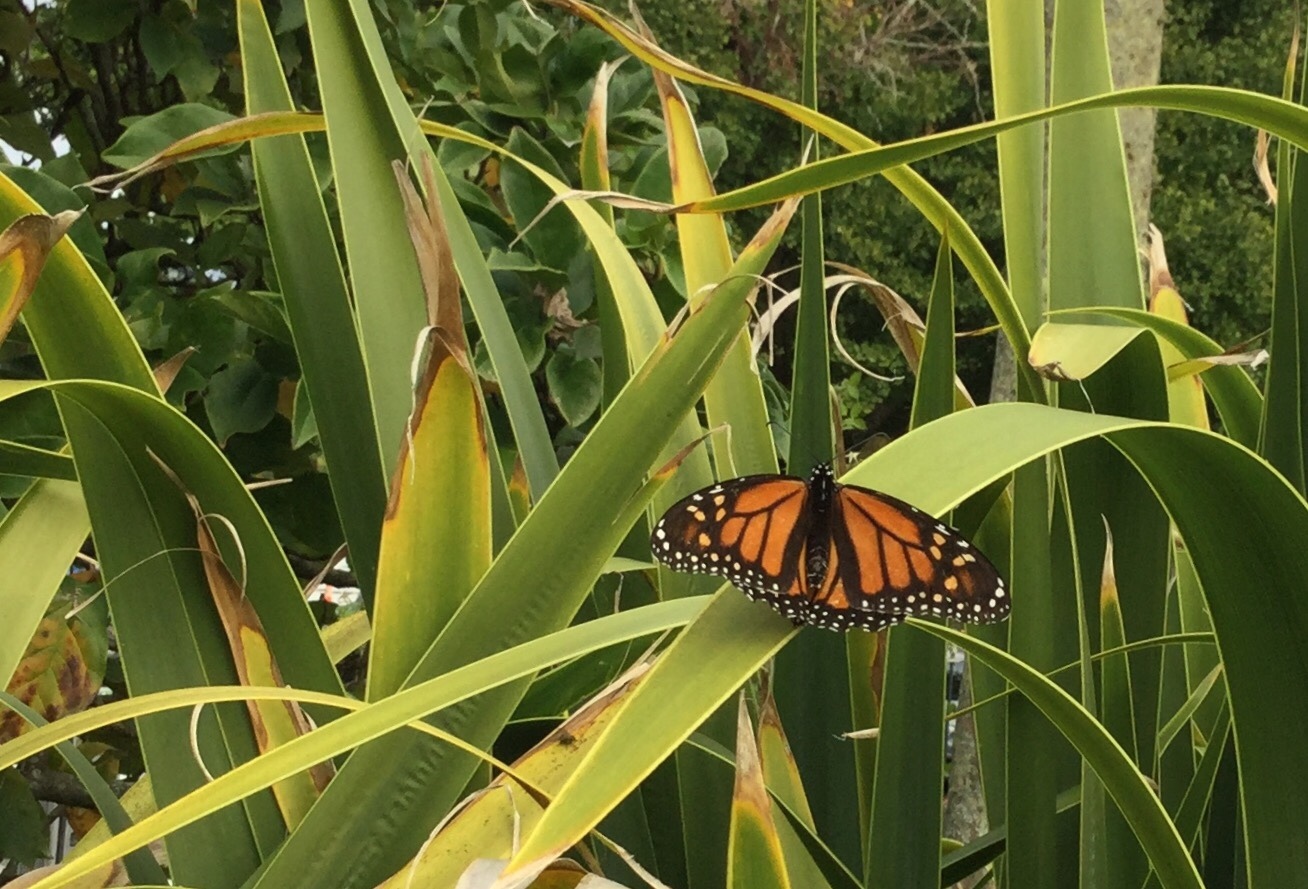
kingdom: Animalia
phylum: Arthropoda
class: Insecta
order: Lepidoptera
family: Nymphalidae
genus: Danaus
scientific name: Danaus plexippus
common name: Monarch
